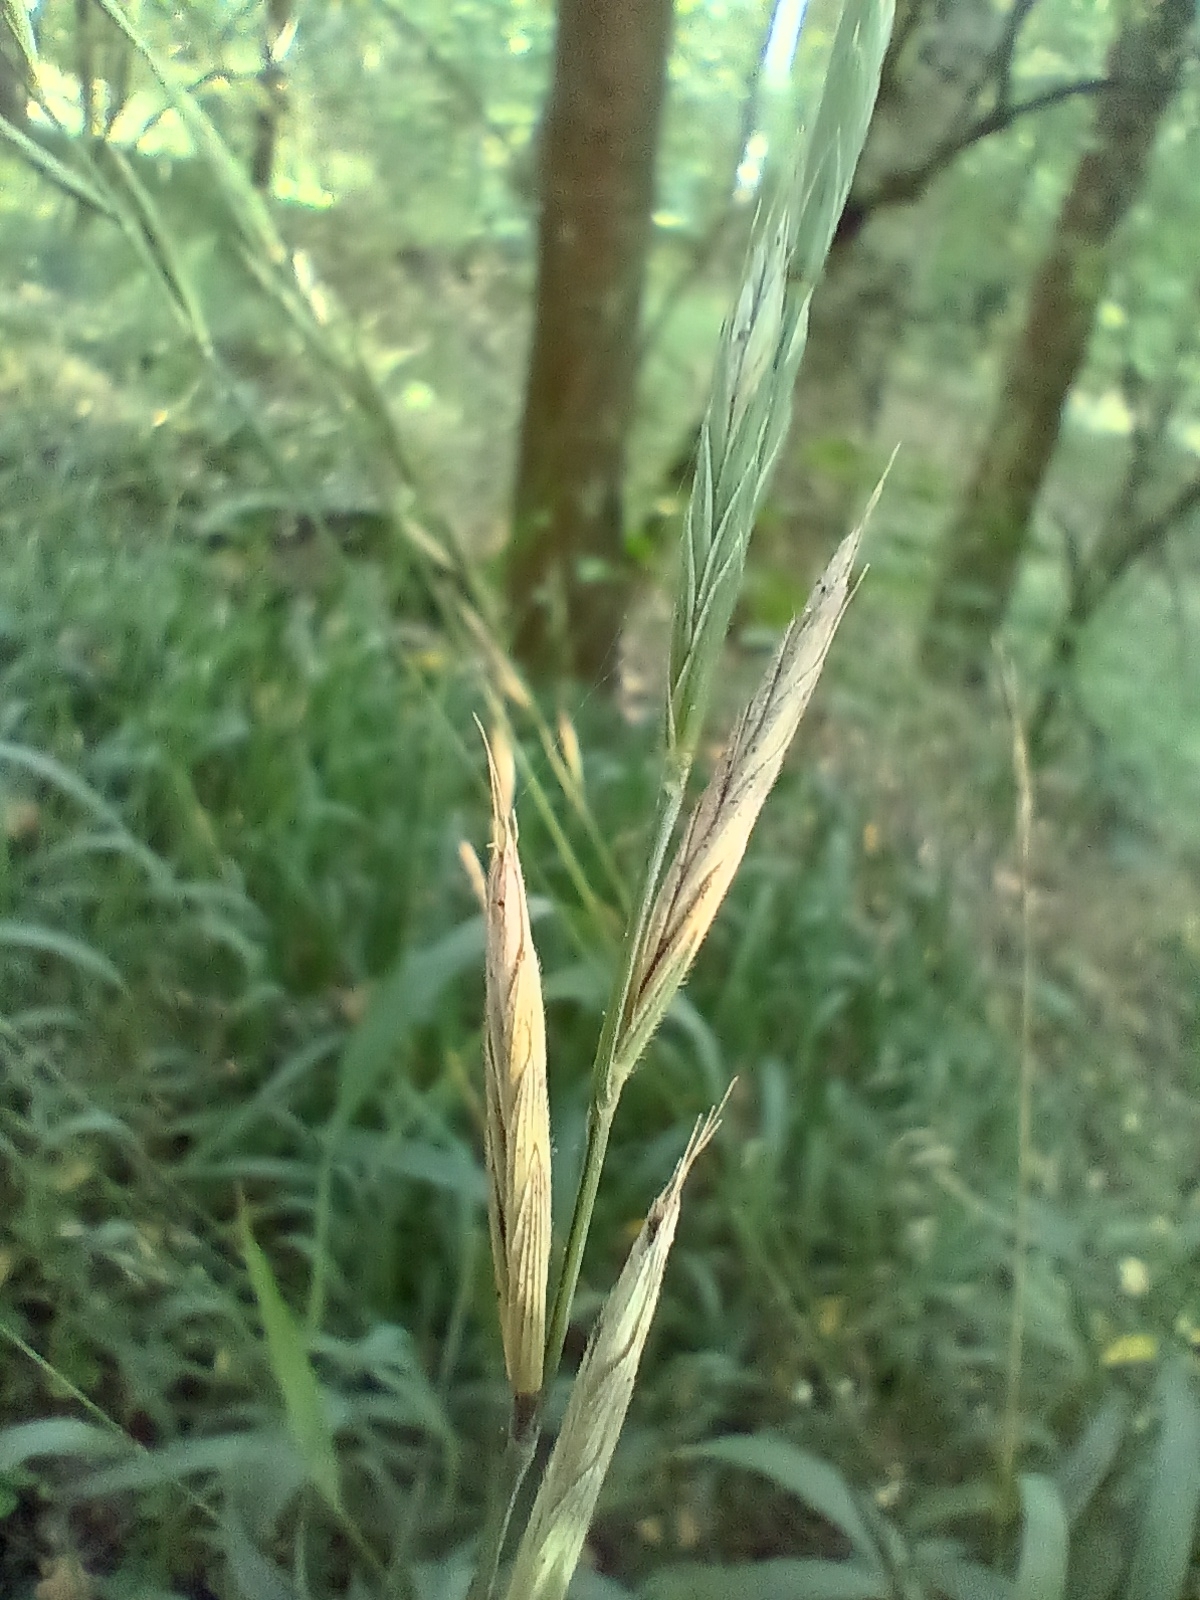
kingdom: Plantae
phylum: Tracheophyta
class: Liliopsida
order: Poales
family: Poaceae
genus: Brachypodium
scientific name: Brachypodium pinnatum
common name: Tor grass
